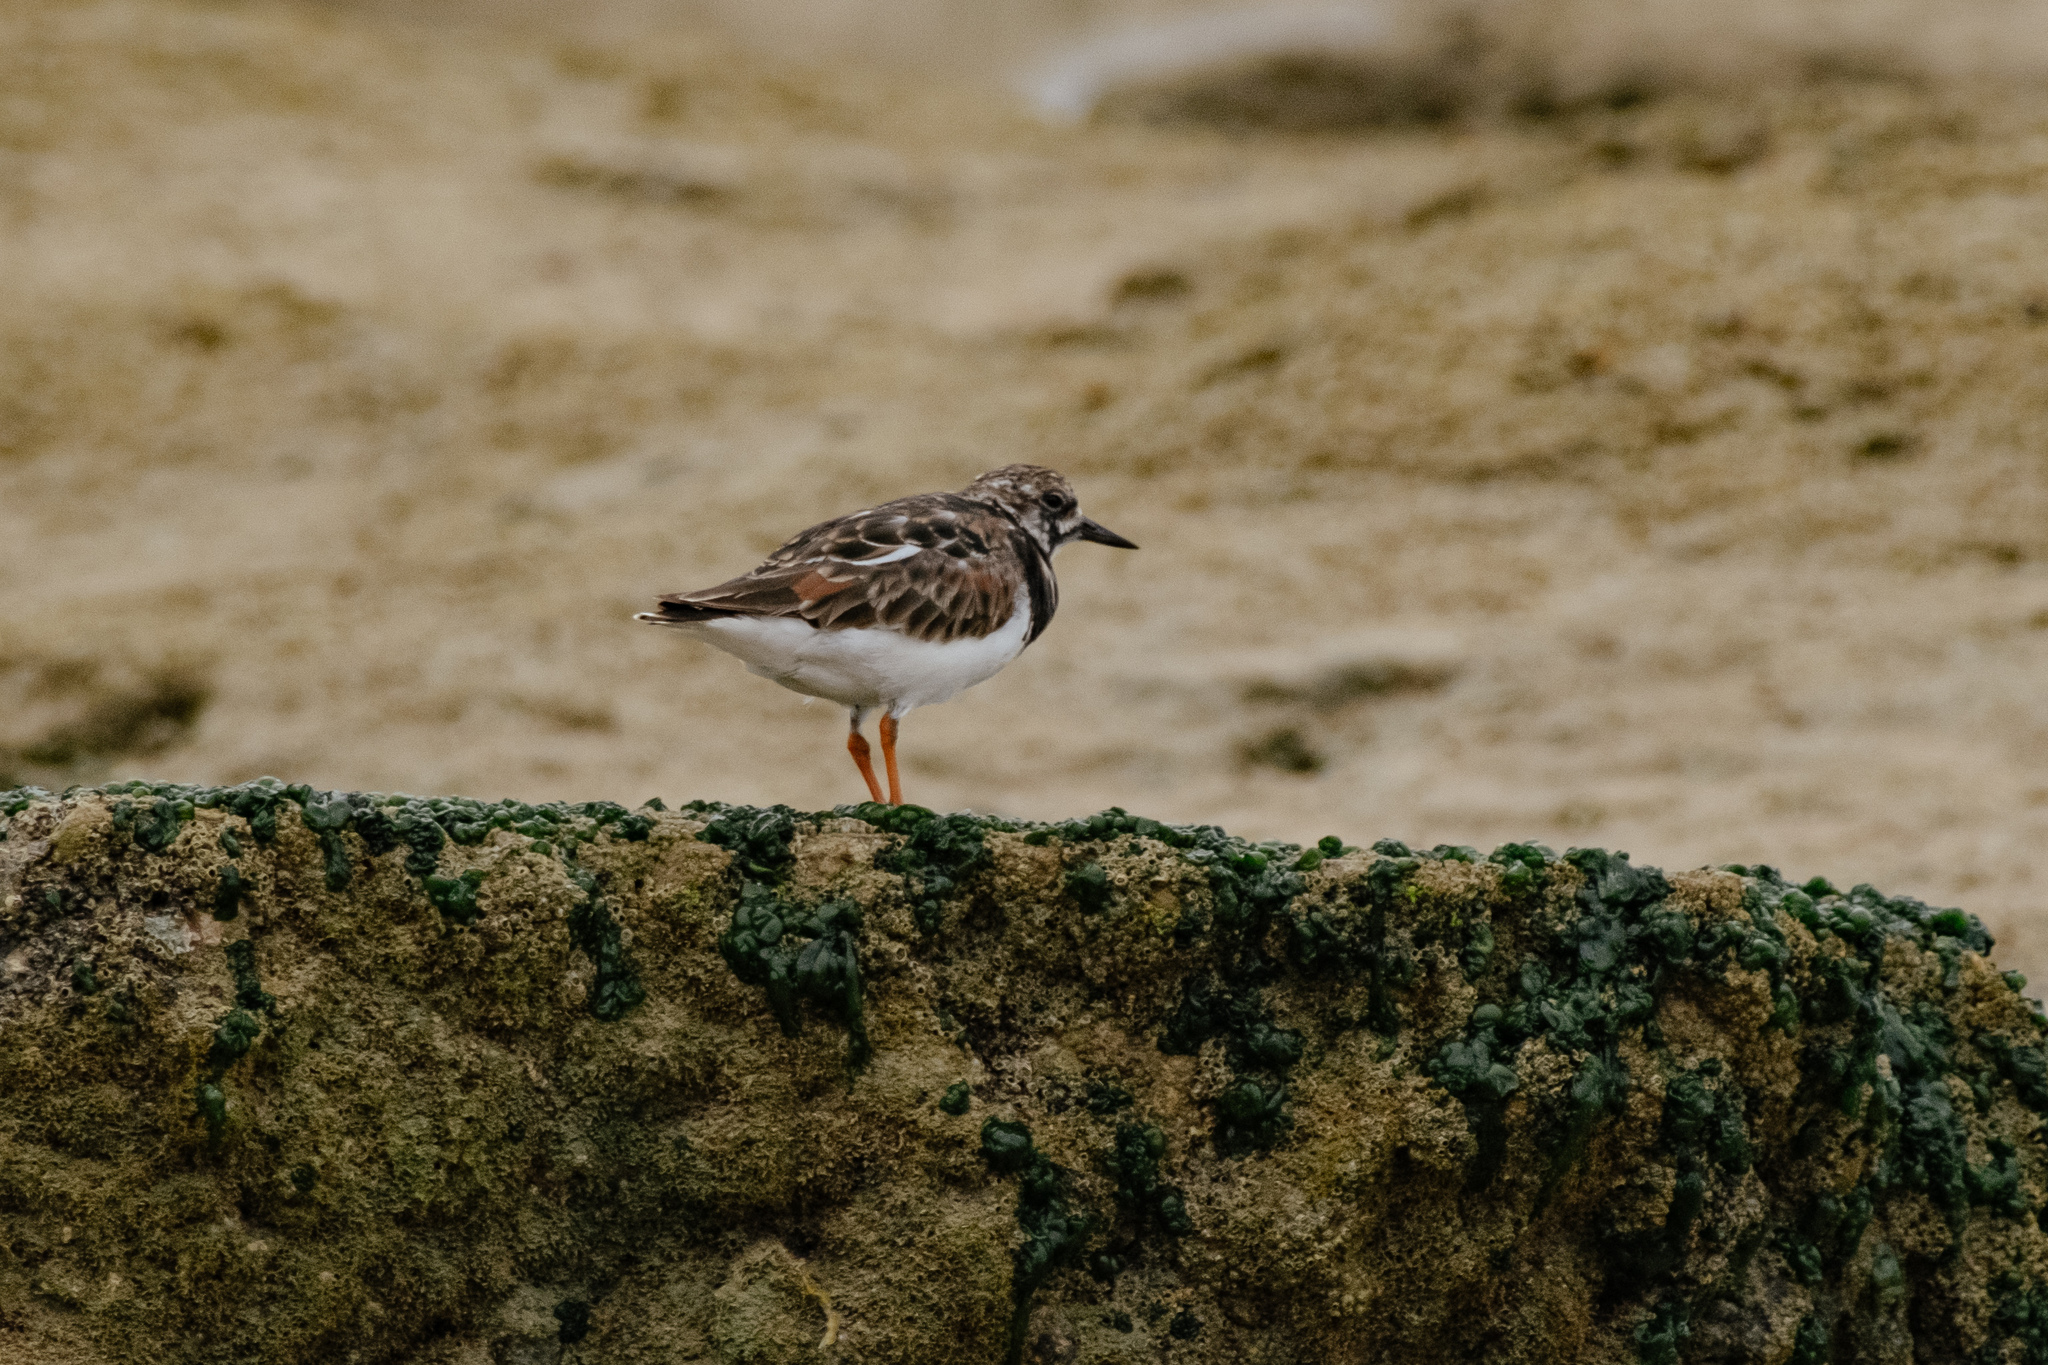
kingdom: Animalia
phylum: Chordata
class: Aves
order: Charadriiformes
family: Scolopacidae
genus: Arenaria
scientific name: Arenaria interpres
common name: Ruddy turnstone
